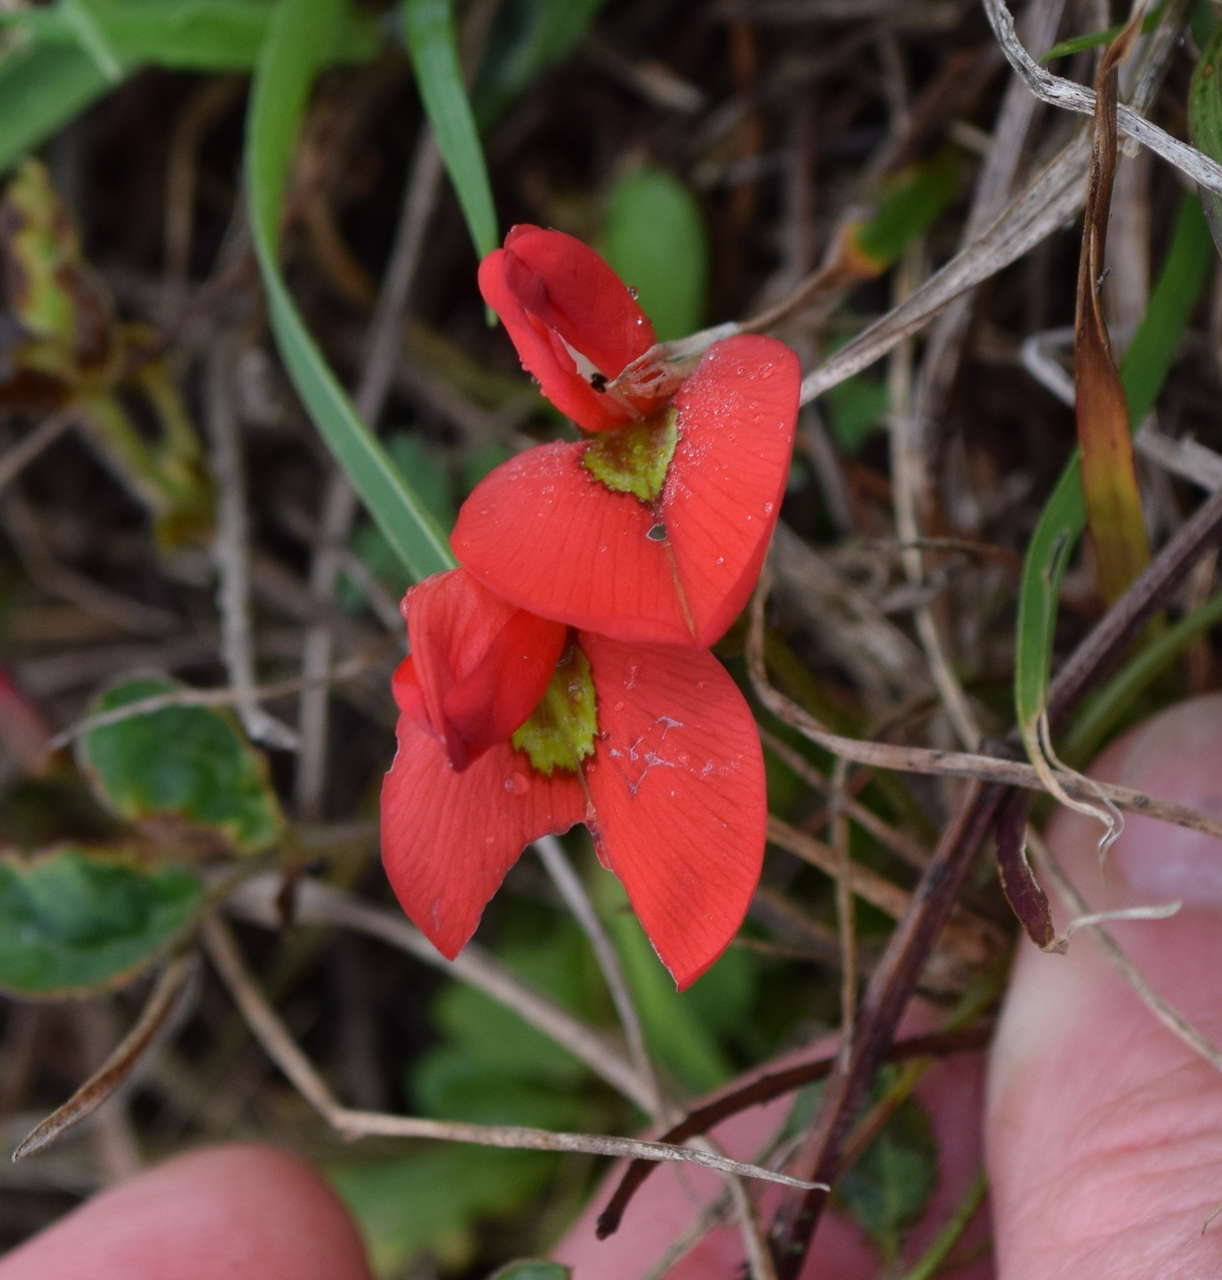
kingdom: Plantae
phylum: Tracheophyta
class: Magnoliopsida
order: Fabales
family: Fabaceae
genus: Kennedia
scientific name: Kennedia prostrata
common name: Running-postman
